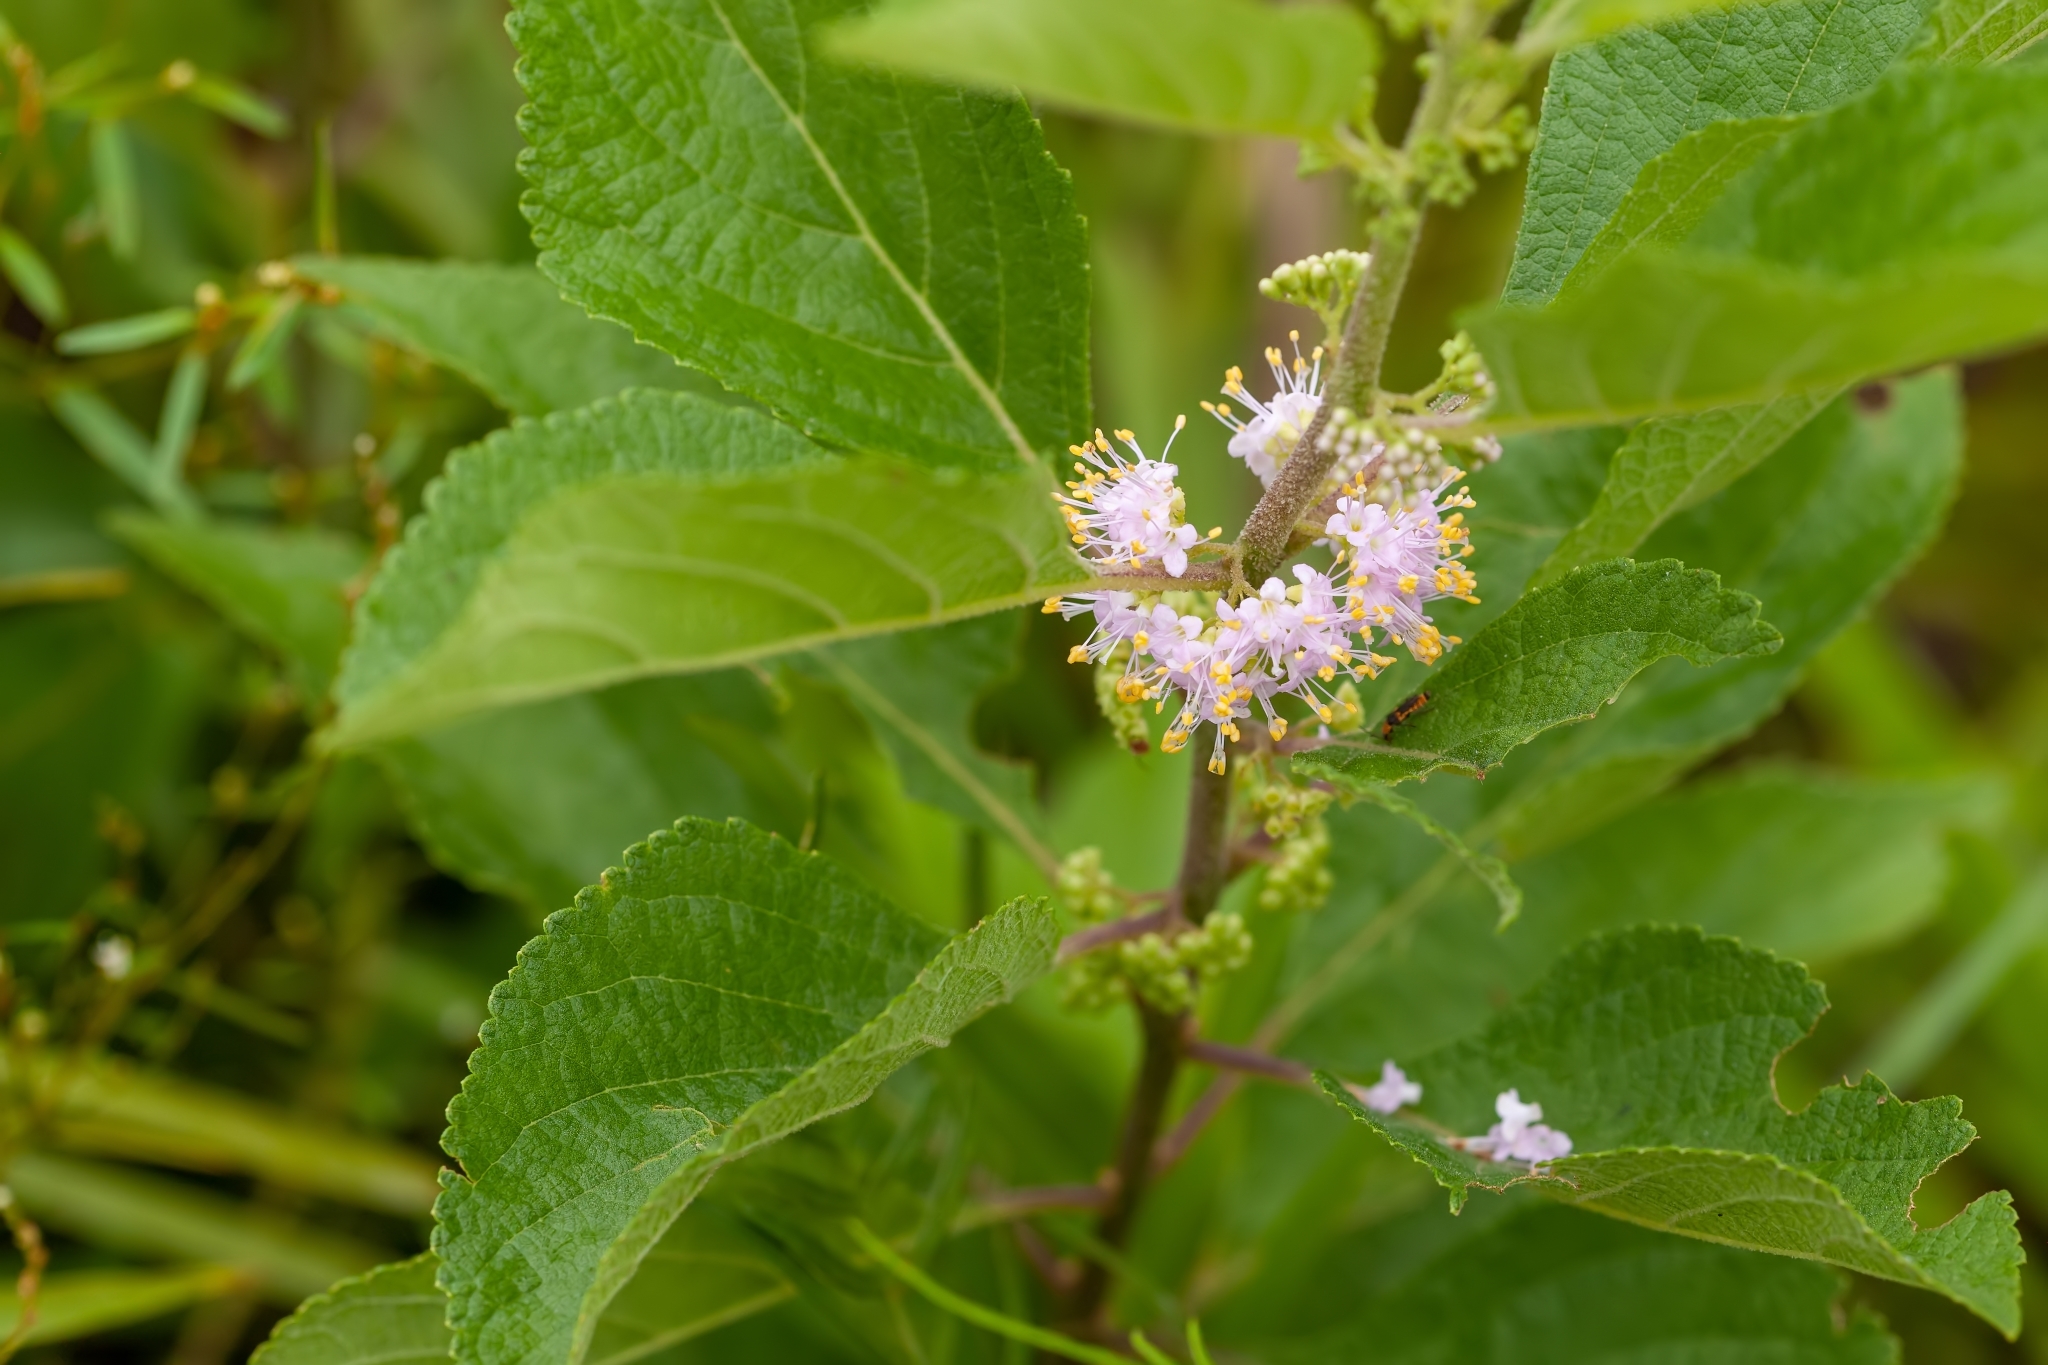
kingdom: Plantae
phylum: Tracheophyta
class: Magnoliopsida
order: Lamiales
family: Lamiaceae
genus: Callicarpa
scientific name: Callicarpa americana
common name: American beautyberry
